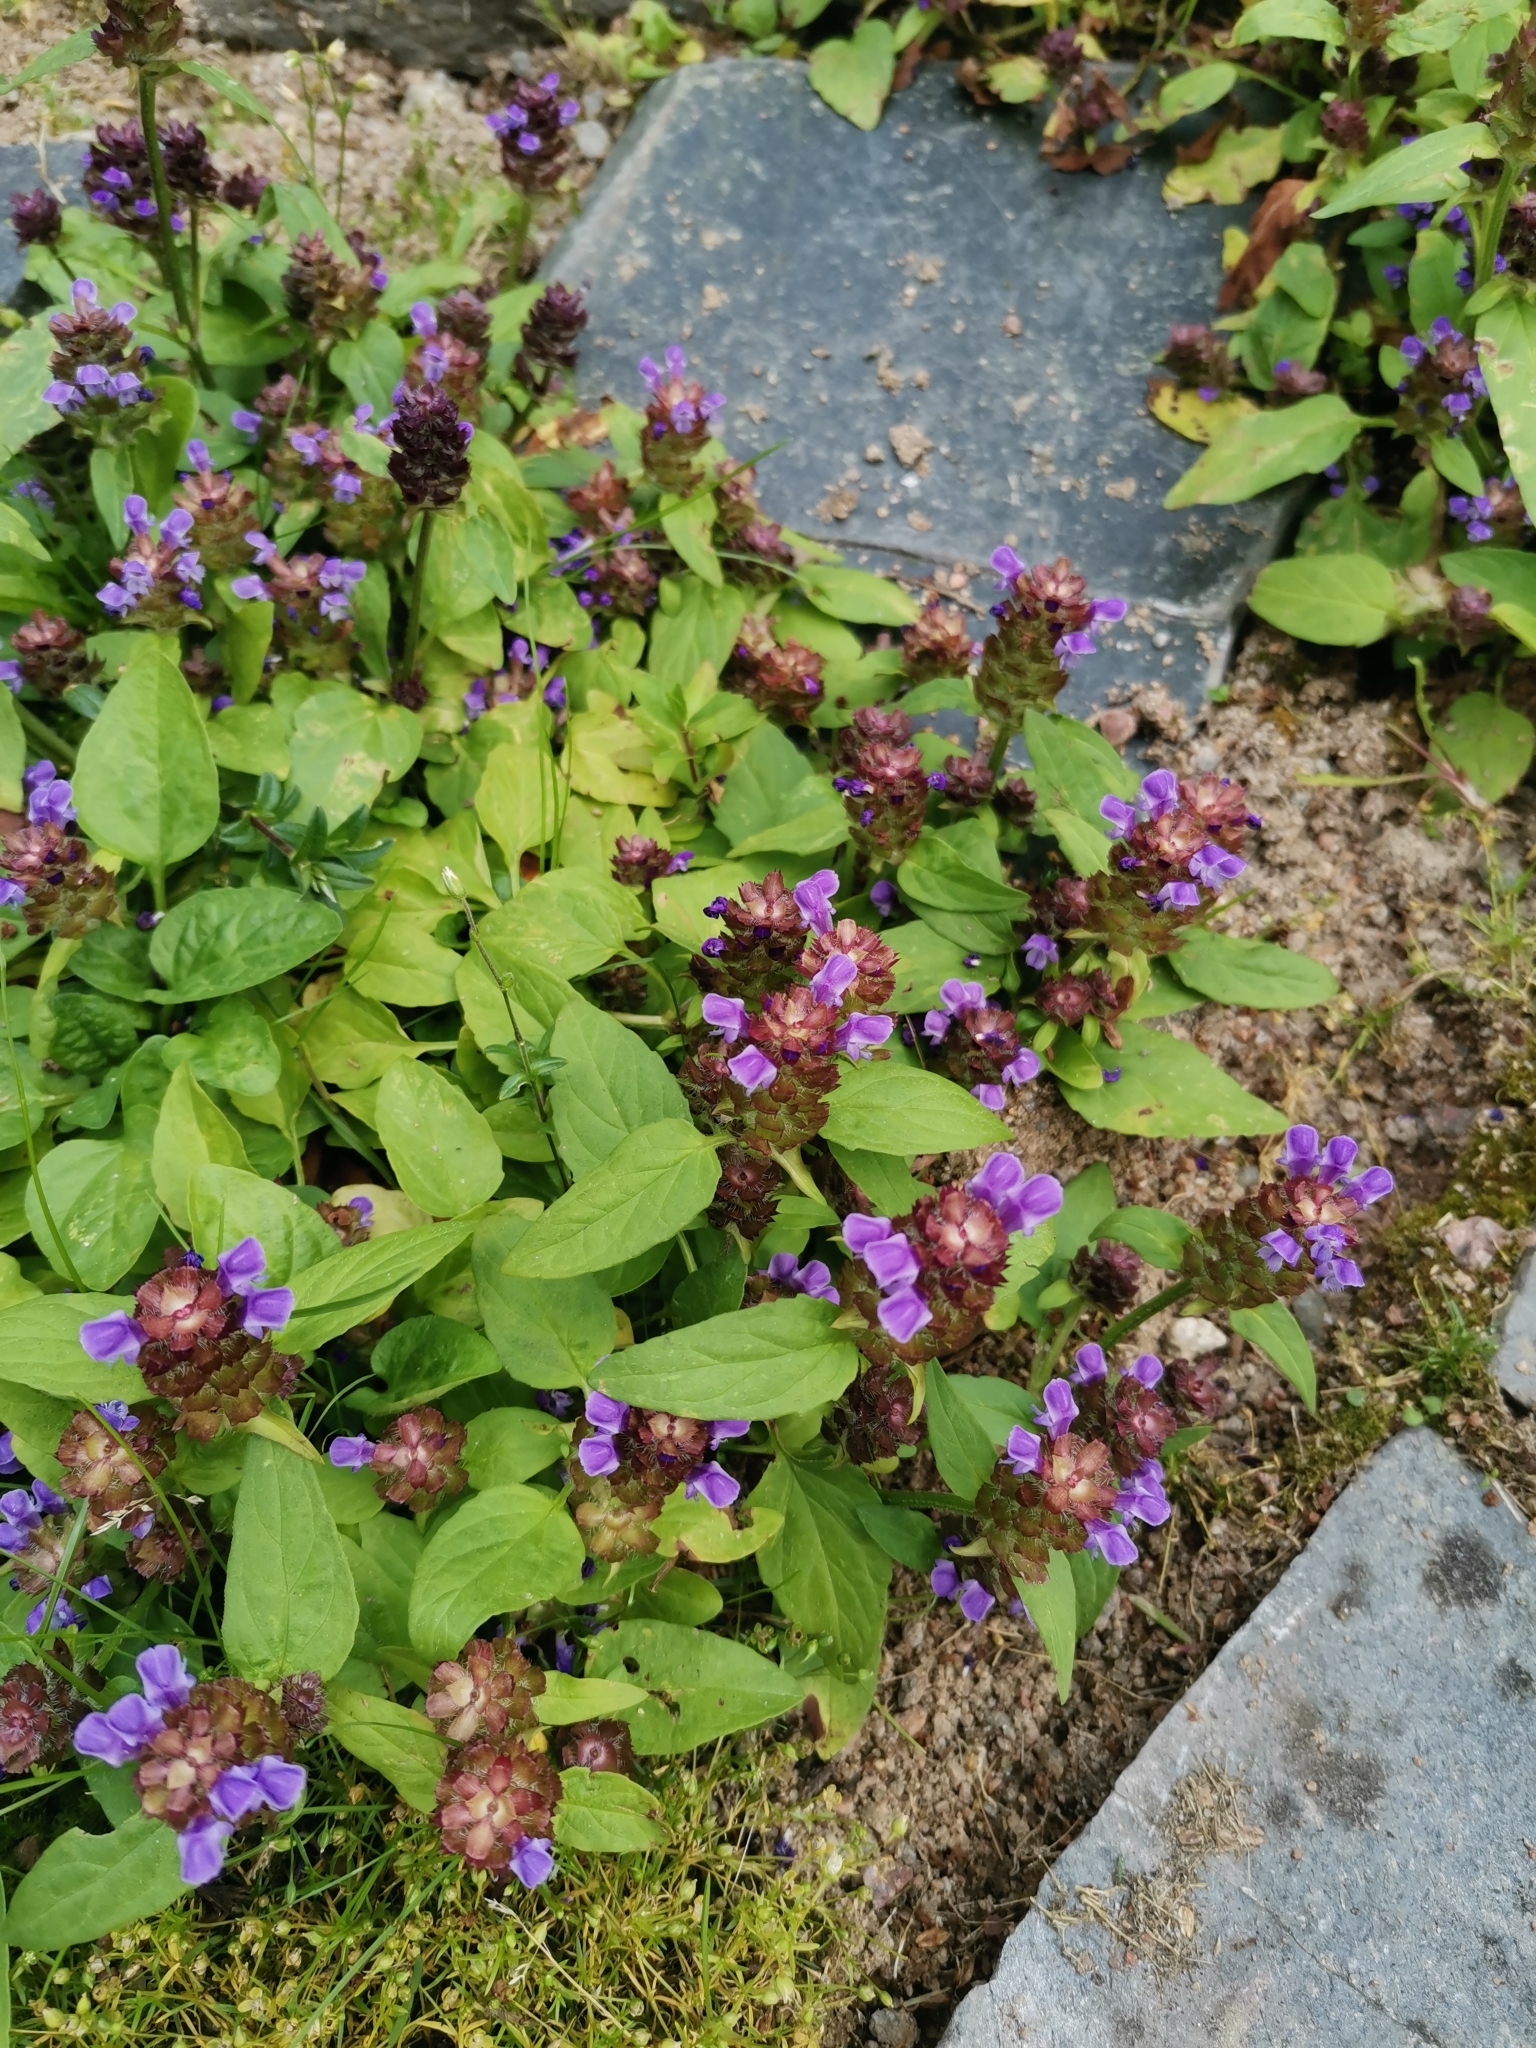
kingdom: Plantae
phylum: Tracheophyta
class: Magnoliopsida
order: Lamiales
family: Lamiaceae
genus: Prunella
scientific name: Prunella vulgaris
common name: Heal-all
